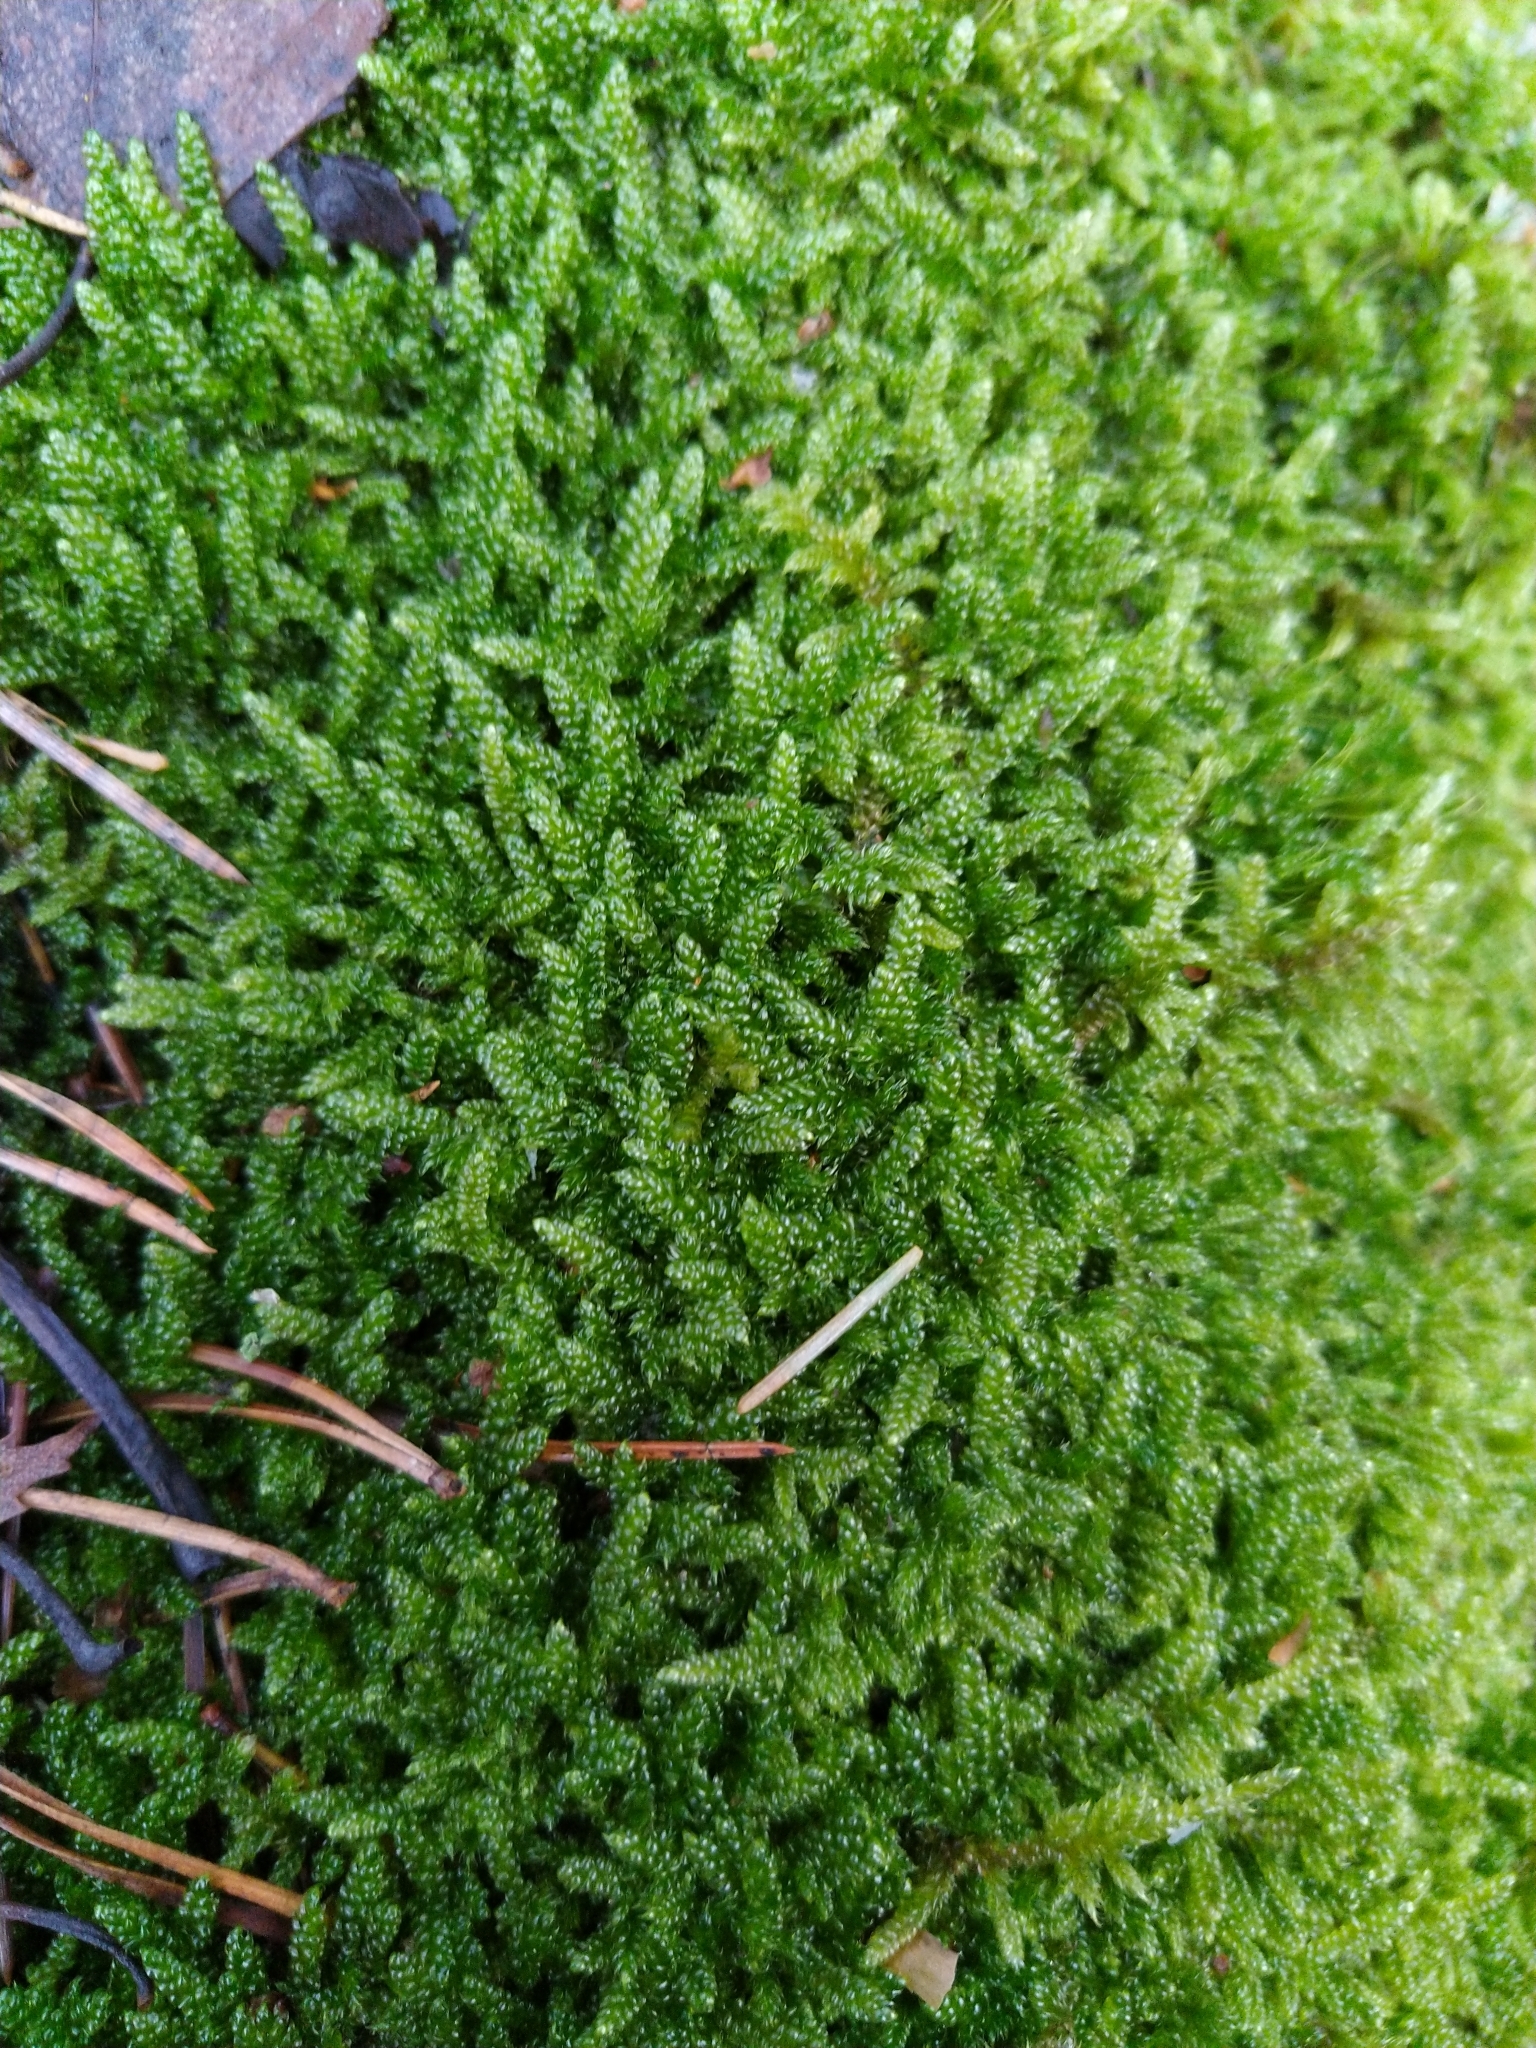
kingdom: Plantae
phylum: Bryophyta
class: Bryopsida
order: Hypnales
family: Hypnaceae
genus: Hypnum
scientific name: Hypnum cupressiforme
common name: Cypress-leaved plait-moss
